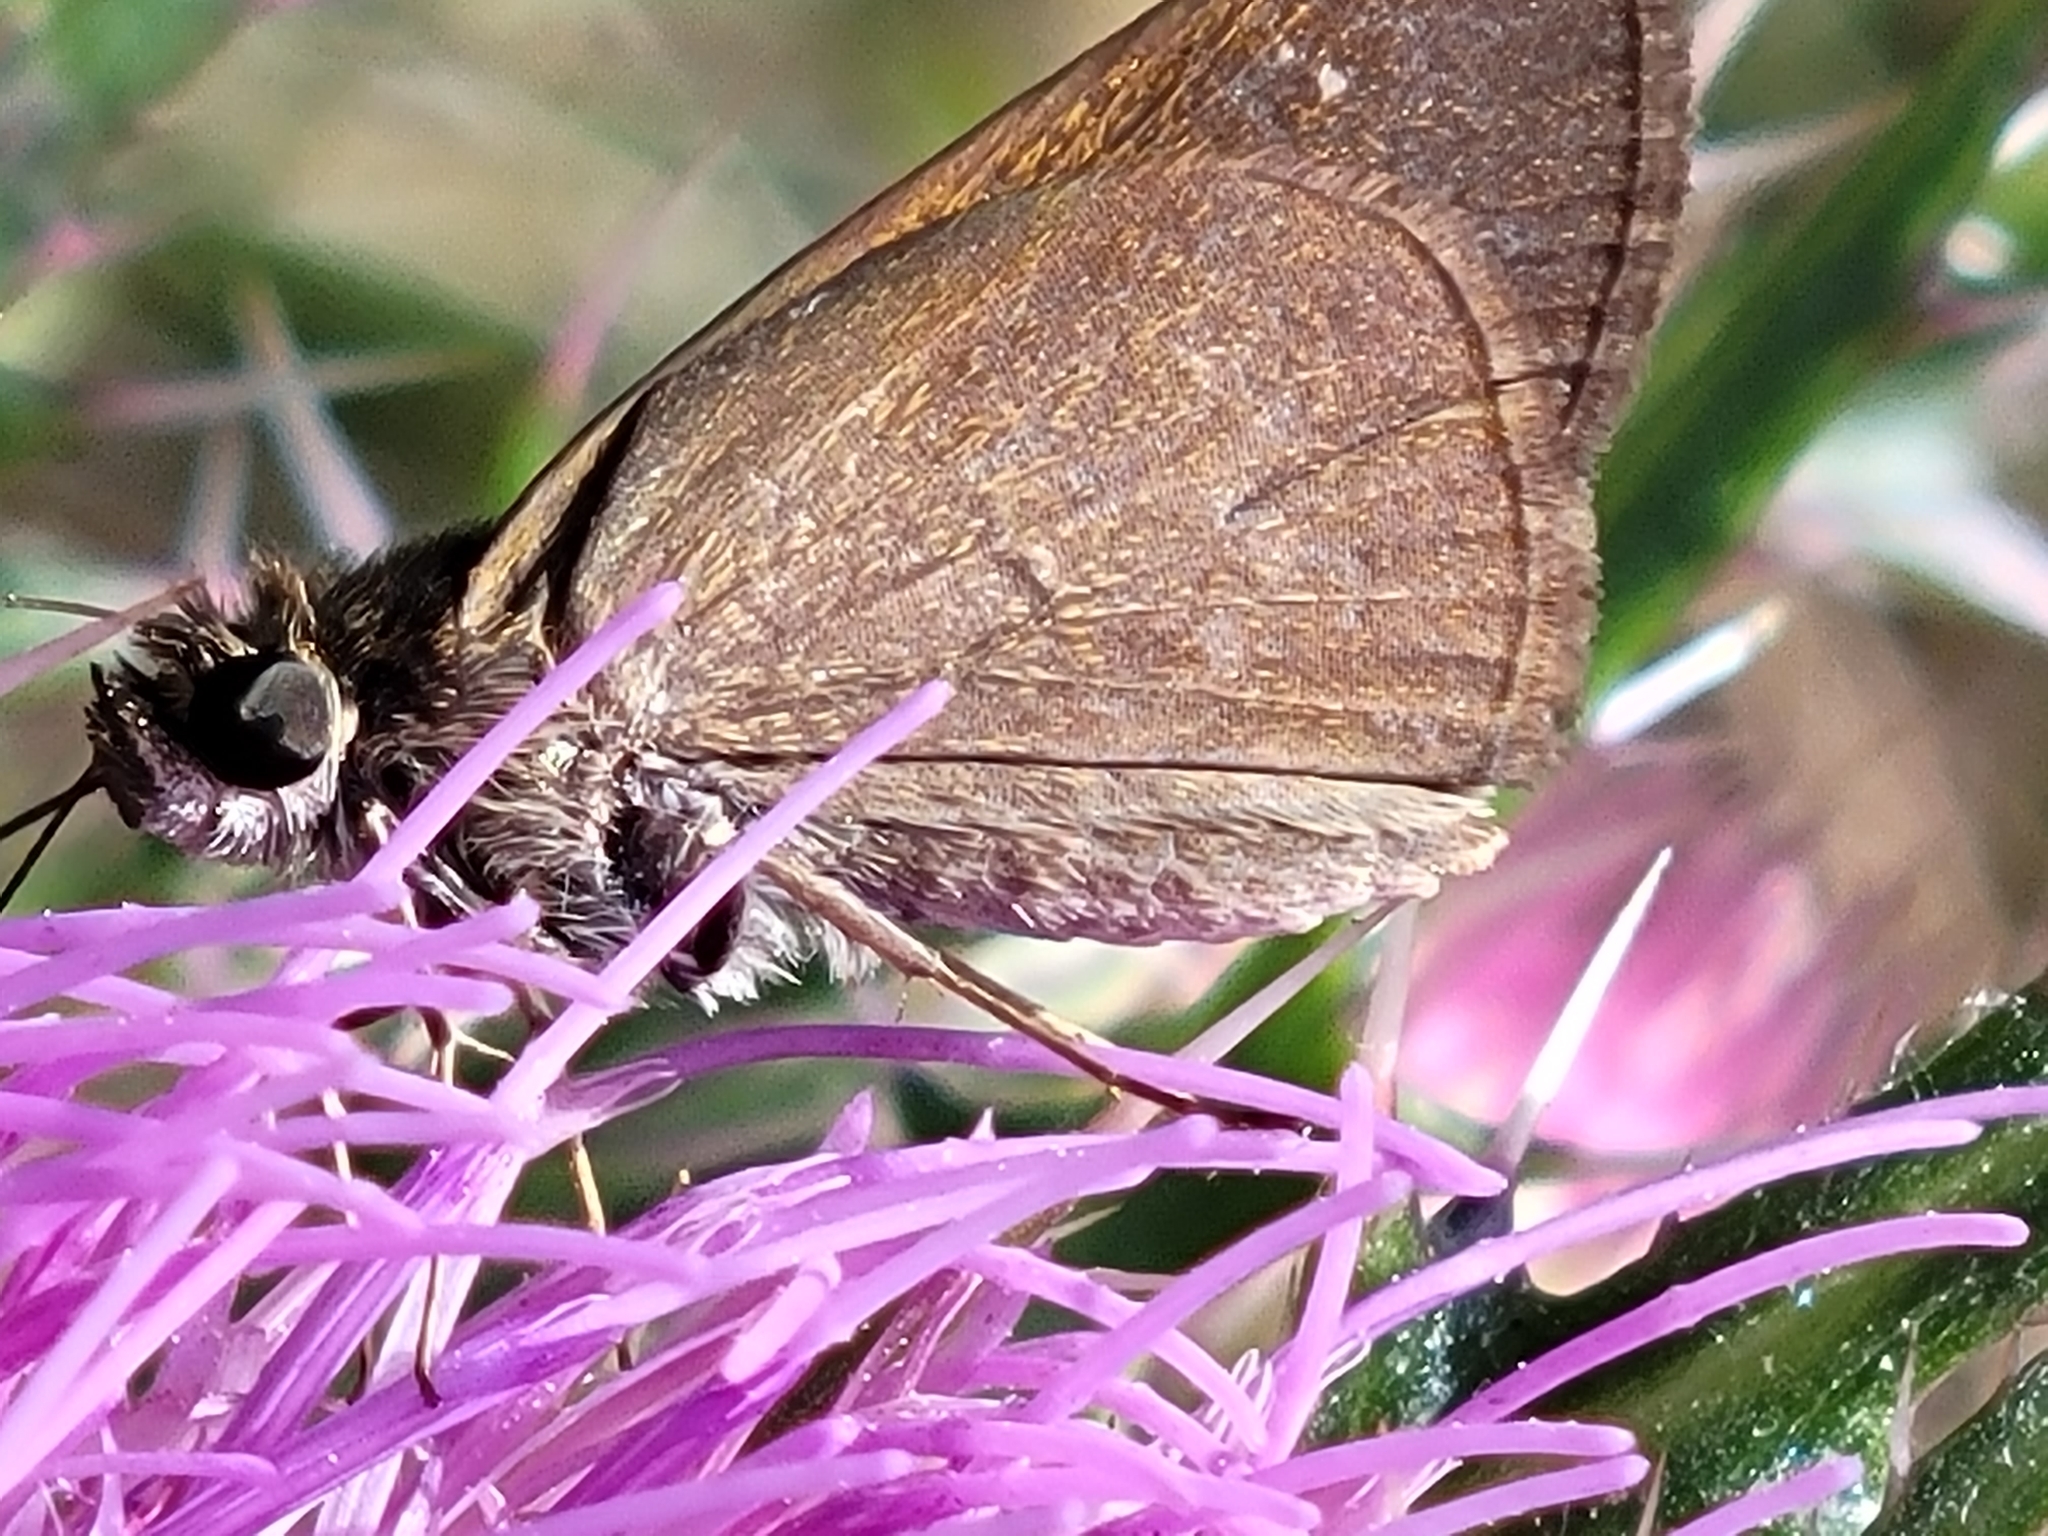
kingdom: Animalia
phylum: Arthropoda
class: Insecta
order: Lepidoptera
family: Hesperiidae
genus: Cymaenes
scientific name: Cymaenes tripunctus
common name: Dingy dotted skipper
